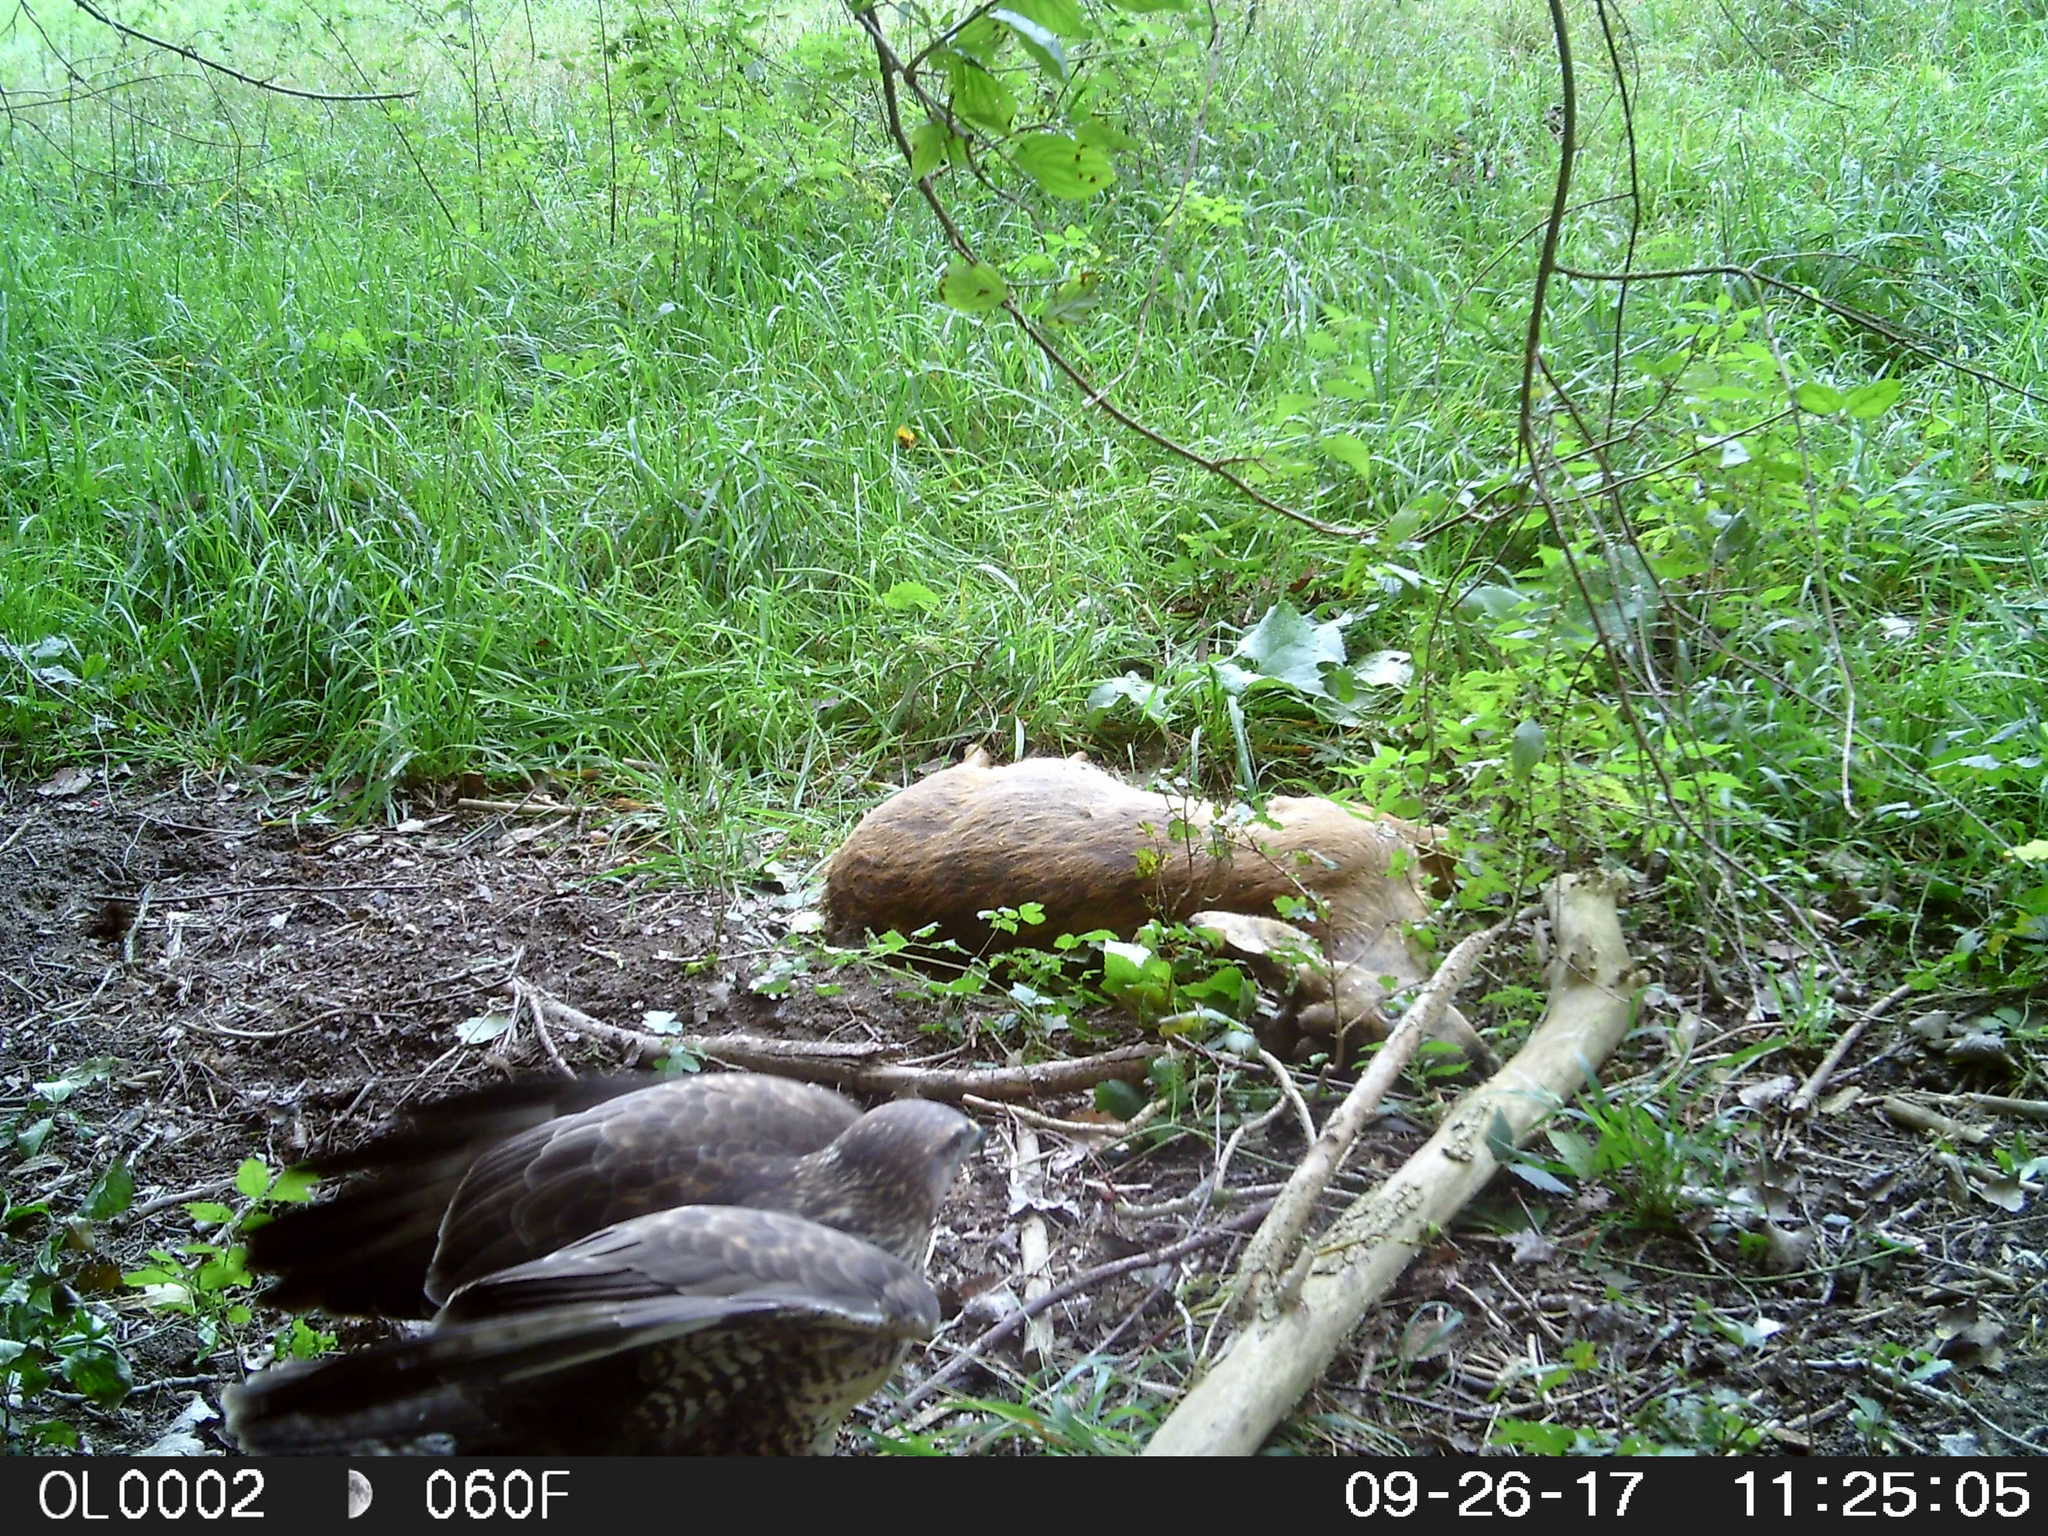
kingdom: Animalia
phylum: Chordata
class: Aves
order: Accipitriformes
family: Accipitridae
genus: Buteo
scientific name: Buteo buteo
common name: Common buzzard
